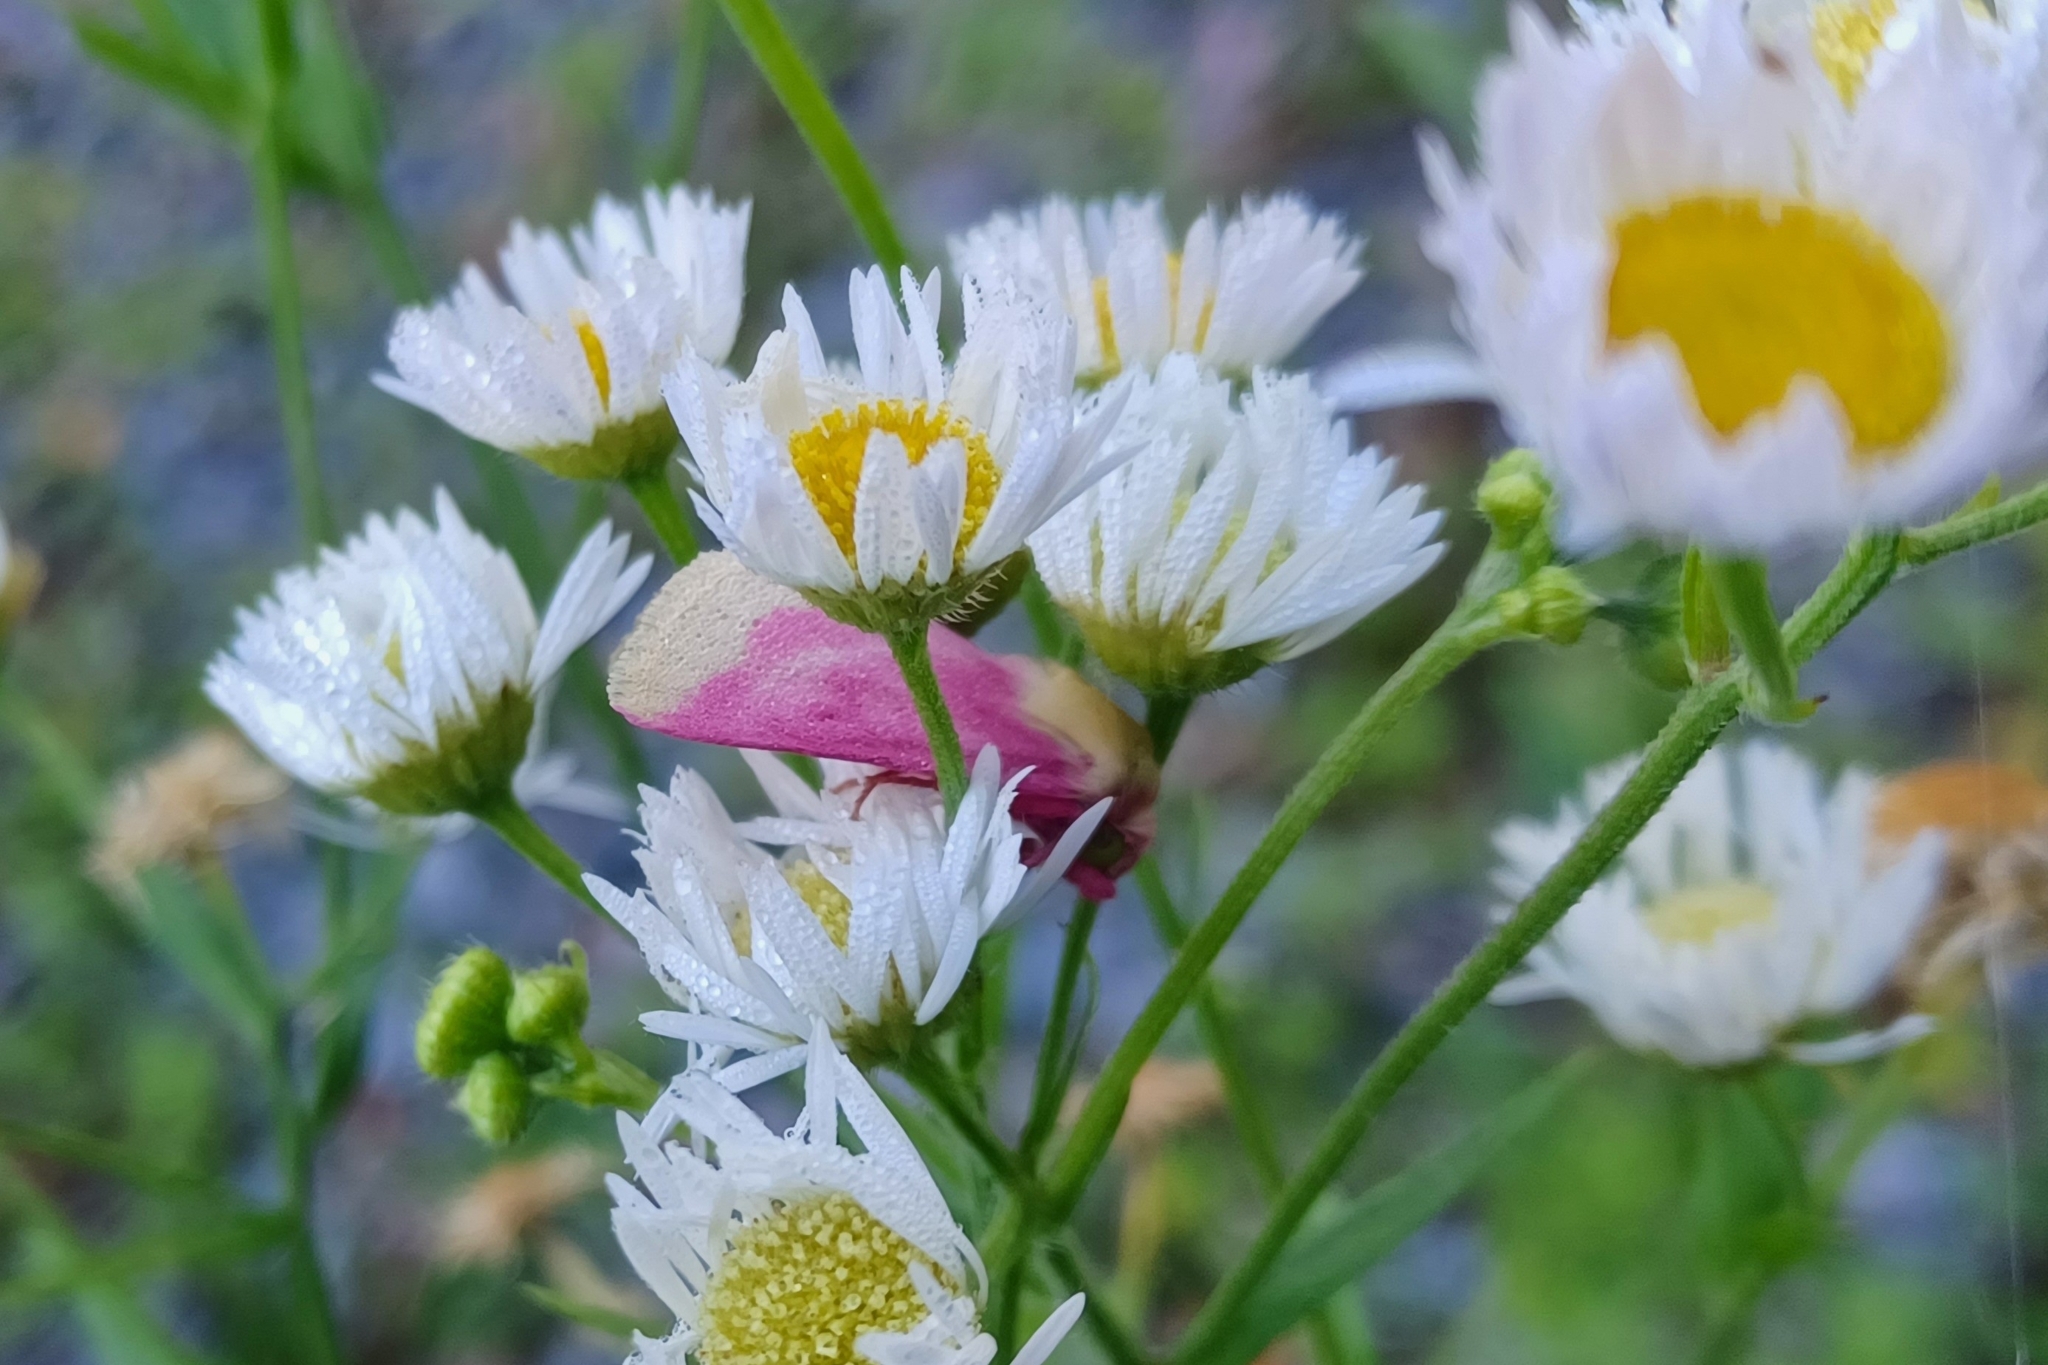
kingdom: Animalia
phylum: Arthropoda
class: Insecta
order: Lepidoptera
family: Noctuidae
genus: Schinia
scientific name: Schinia florida
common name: Primrose moth
